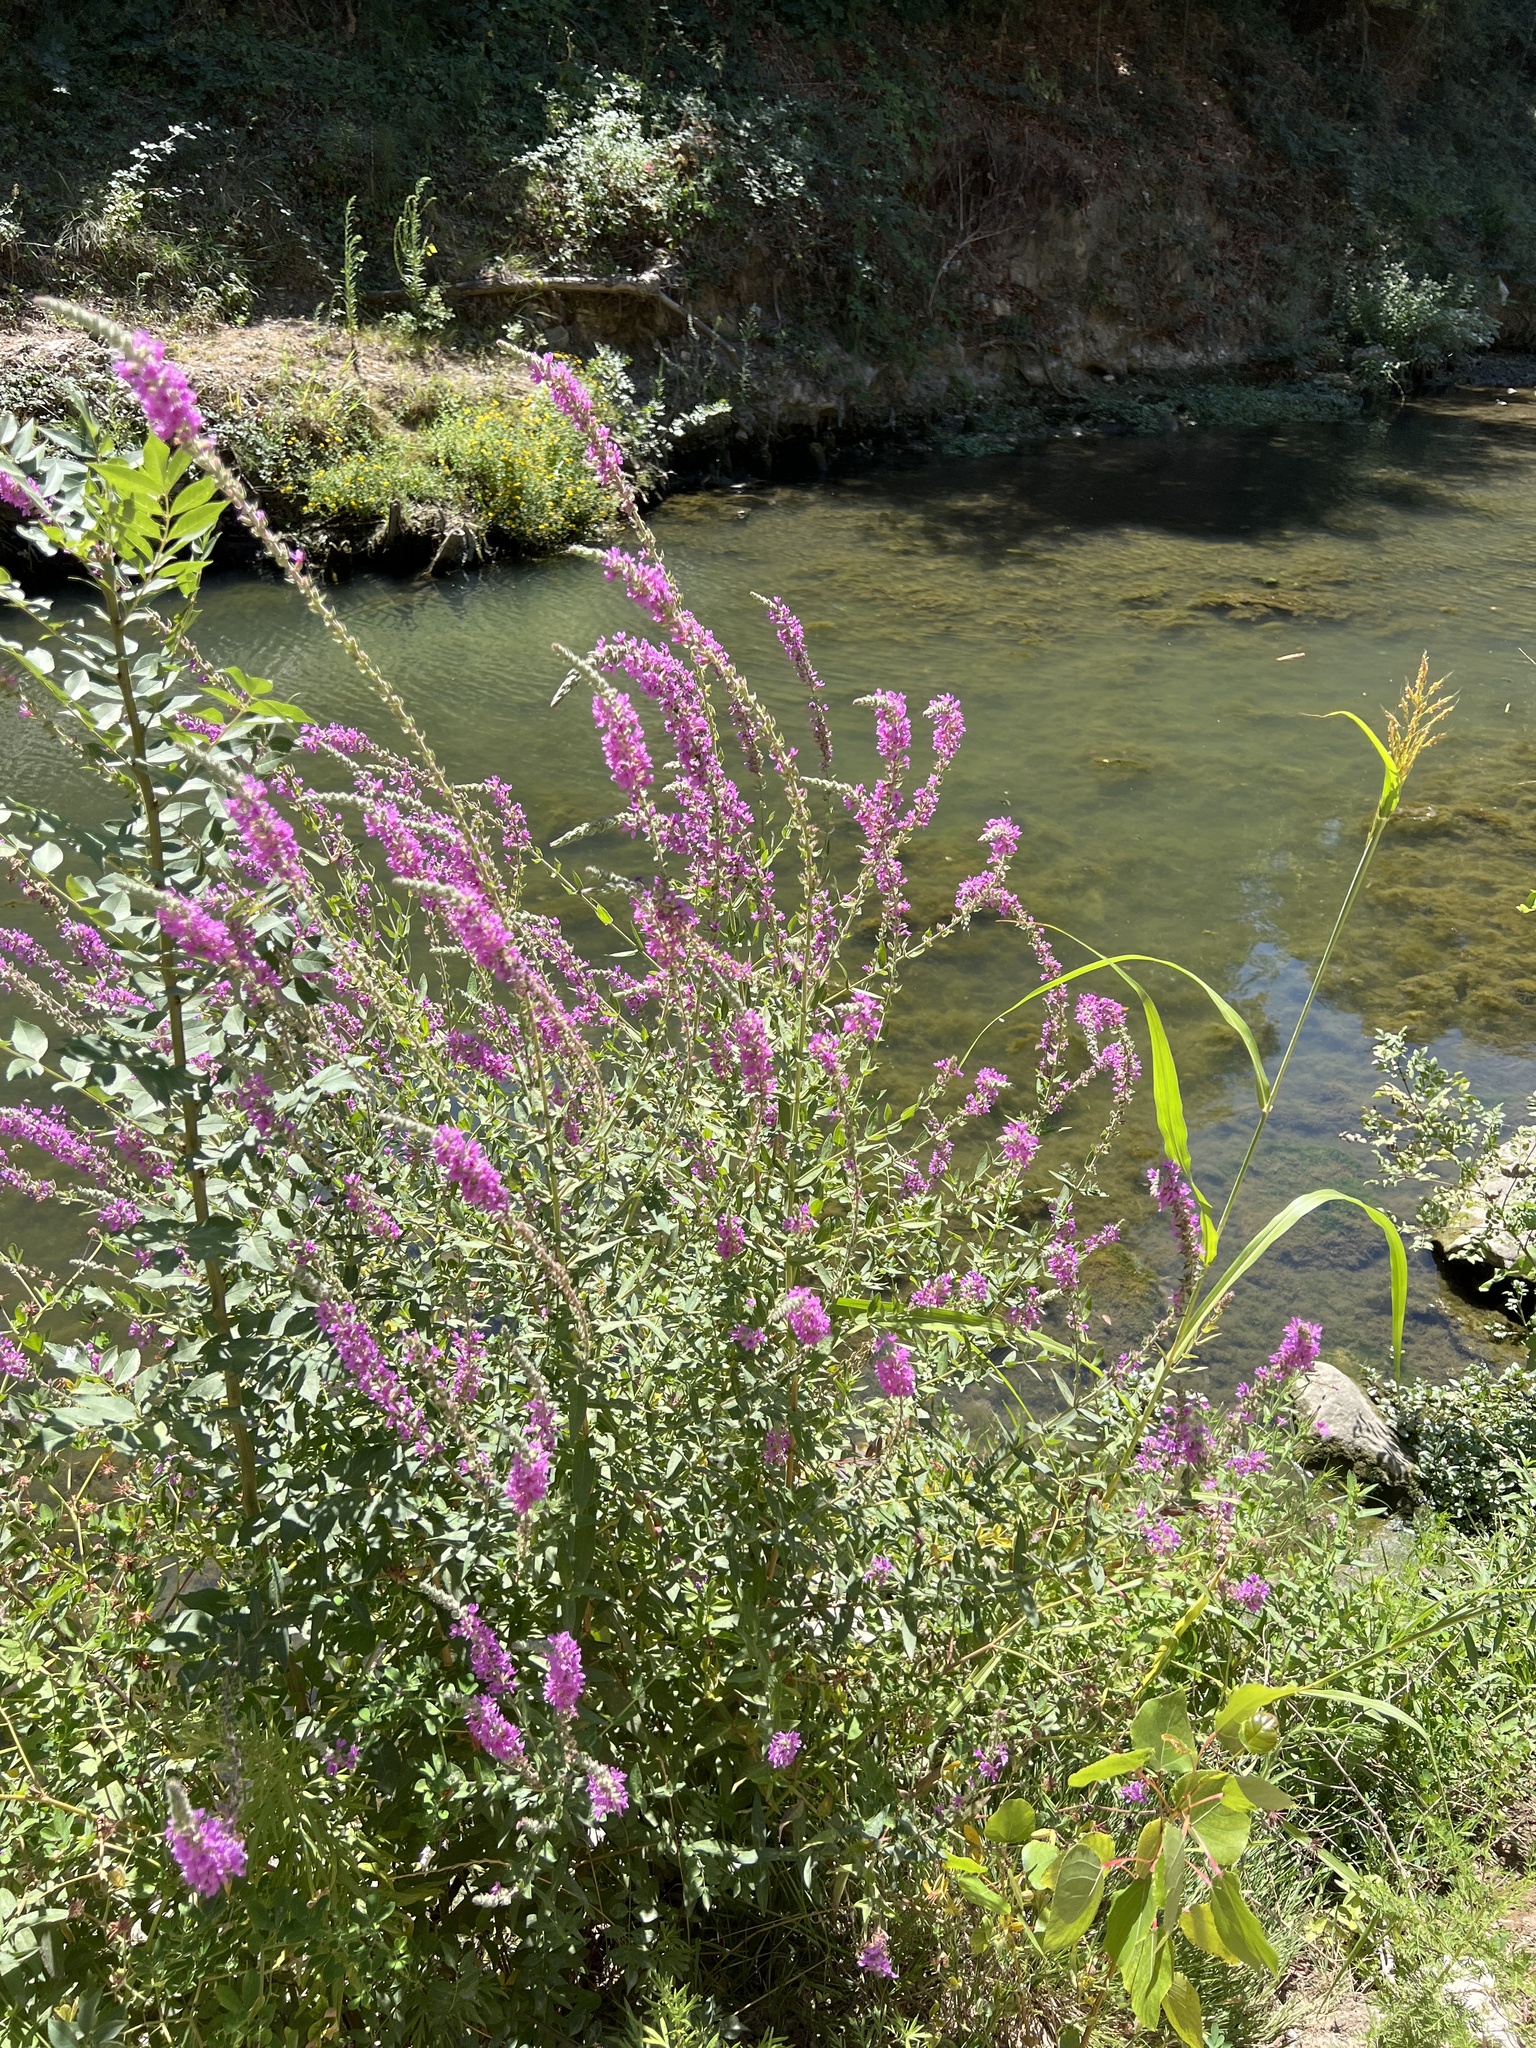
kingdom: Plantae
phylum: Tracheophyta
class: Magnoliopsida
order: Myrtales
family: Lythraceae
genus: Lythrum
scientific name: Lythrum salicaria
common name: Purple loosestrife
